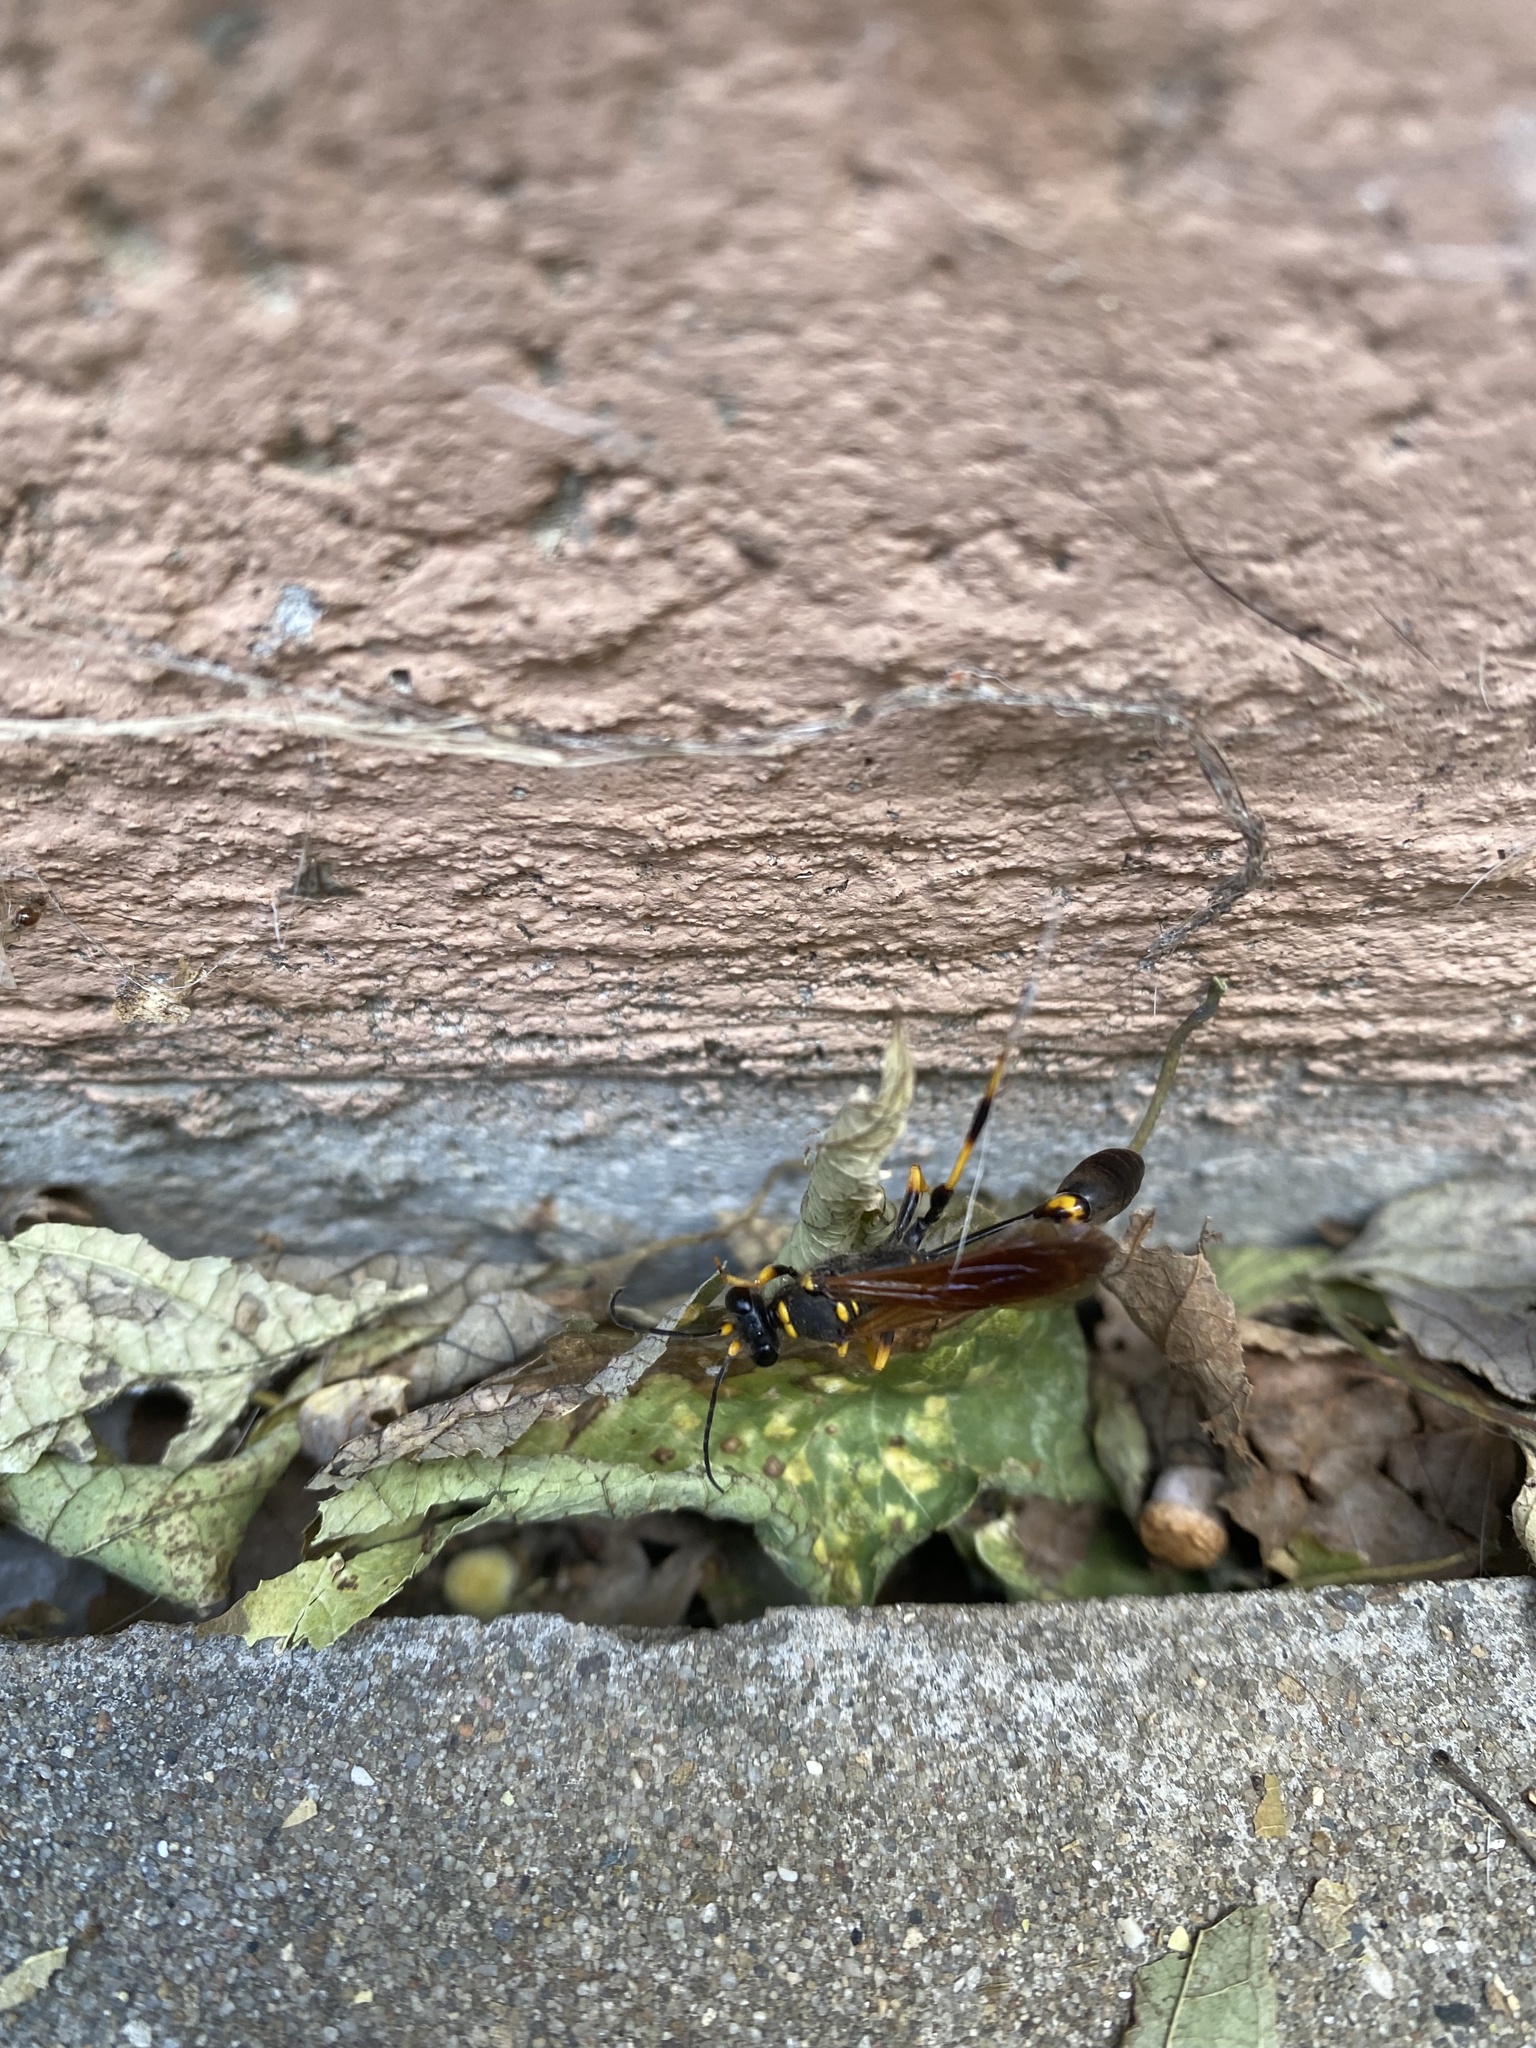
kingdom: Animalia
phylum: Arthropoda
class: Insecta
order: Hymenoptera
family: Sphecidae
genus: Sceliphron
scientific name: Sceliphron caementarium
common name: Mud dauber
